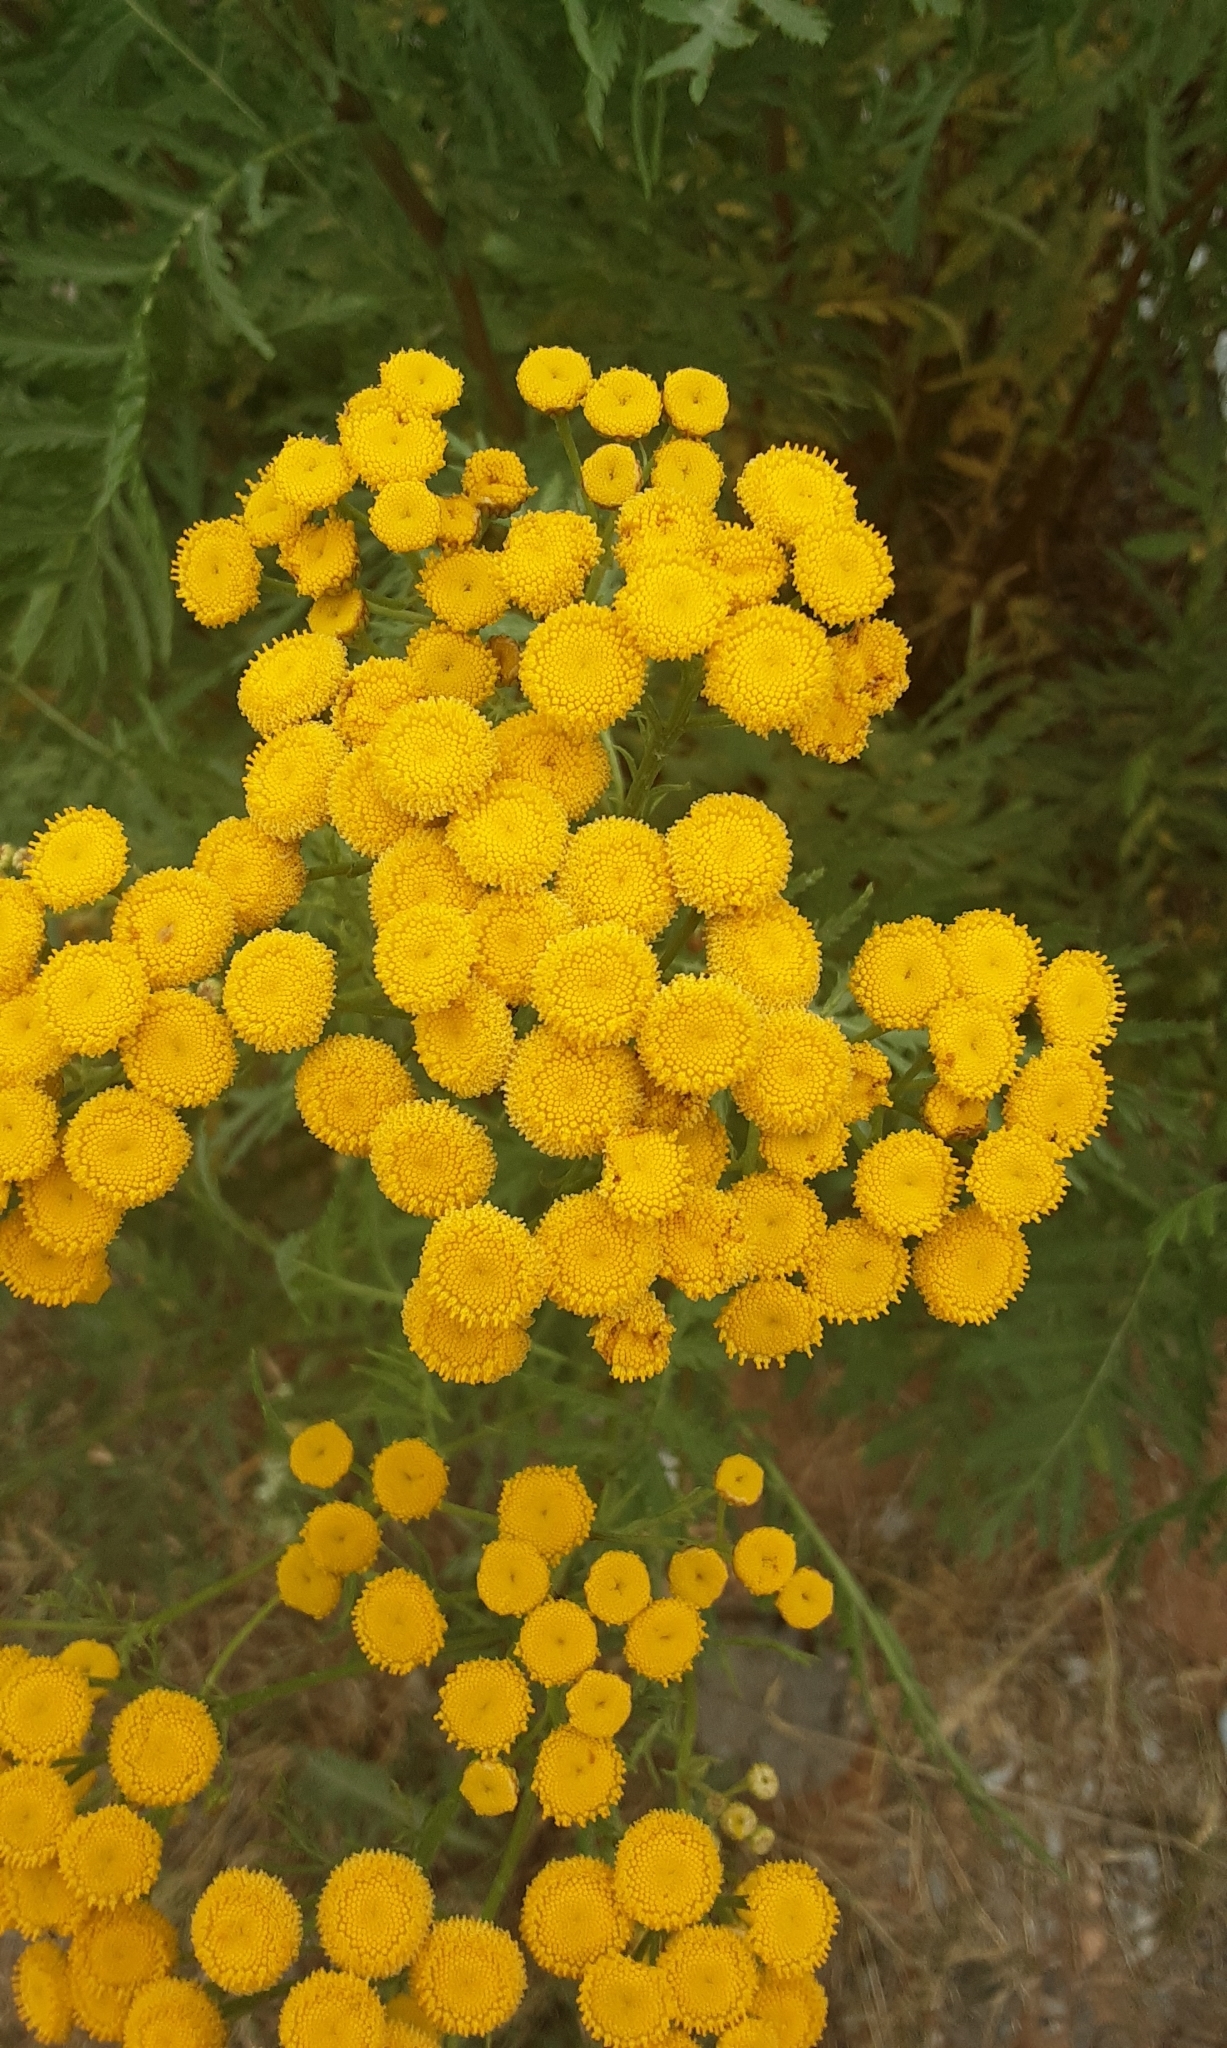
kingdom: Plantae
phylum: Tracheophyta
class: Magnoliopsida
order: Asterales
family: Asteraceae
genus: Tanacetum
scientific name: Tanacetum vulgare
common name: Common tansy
